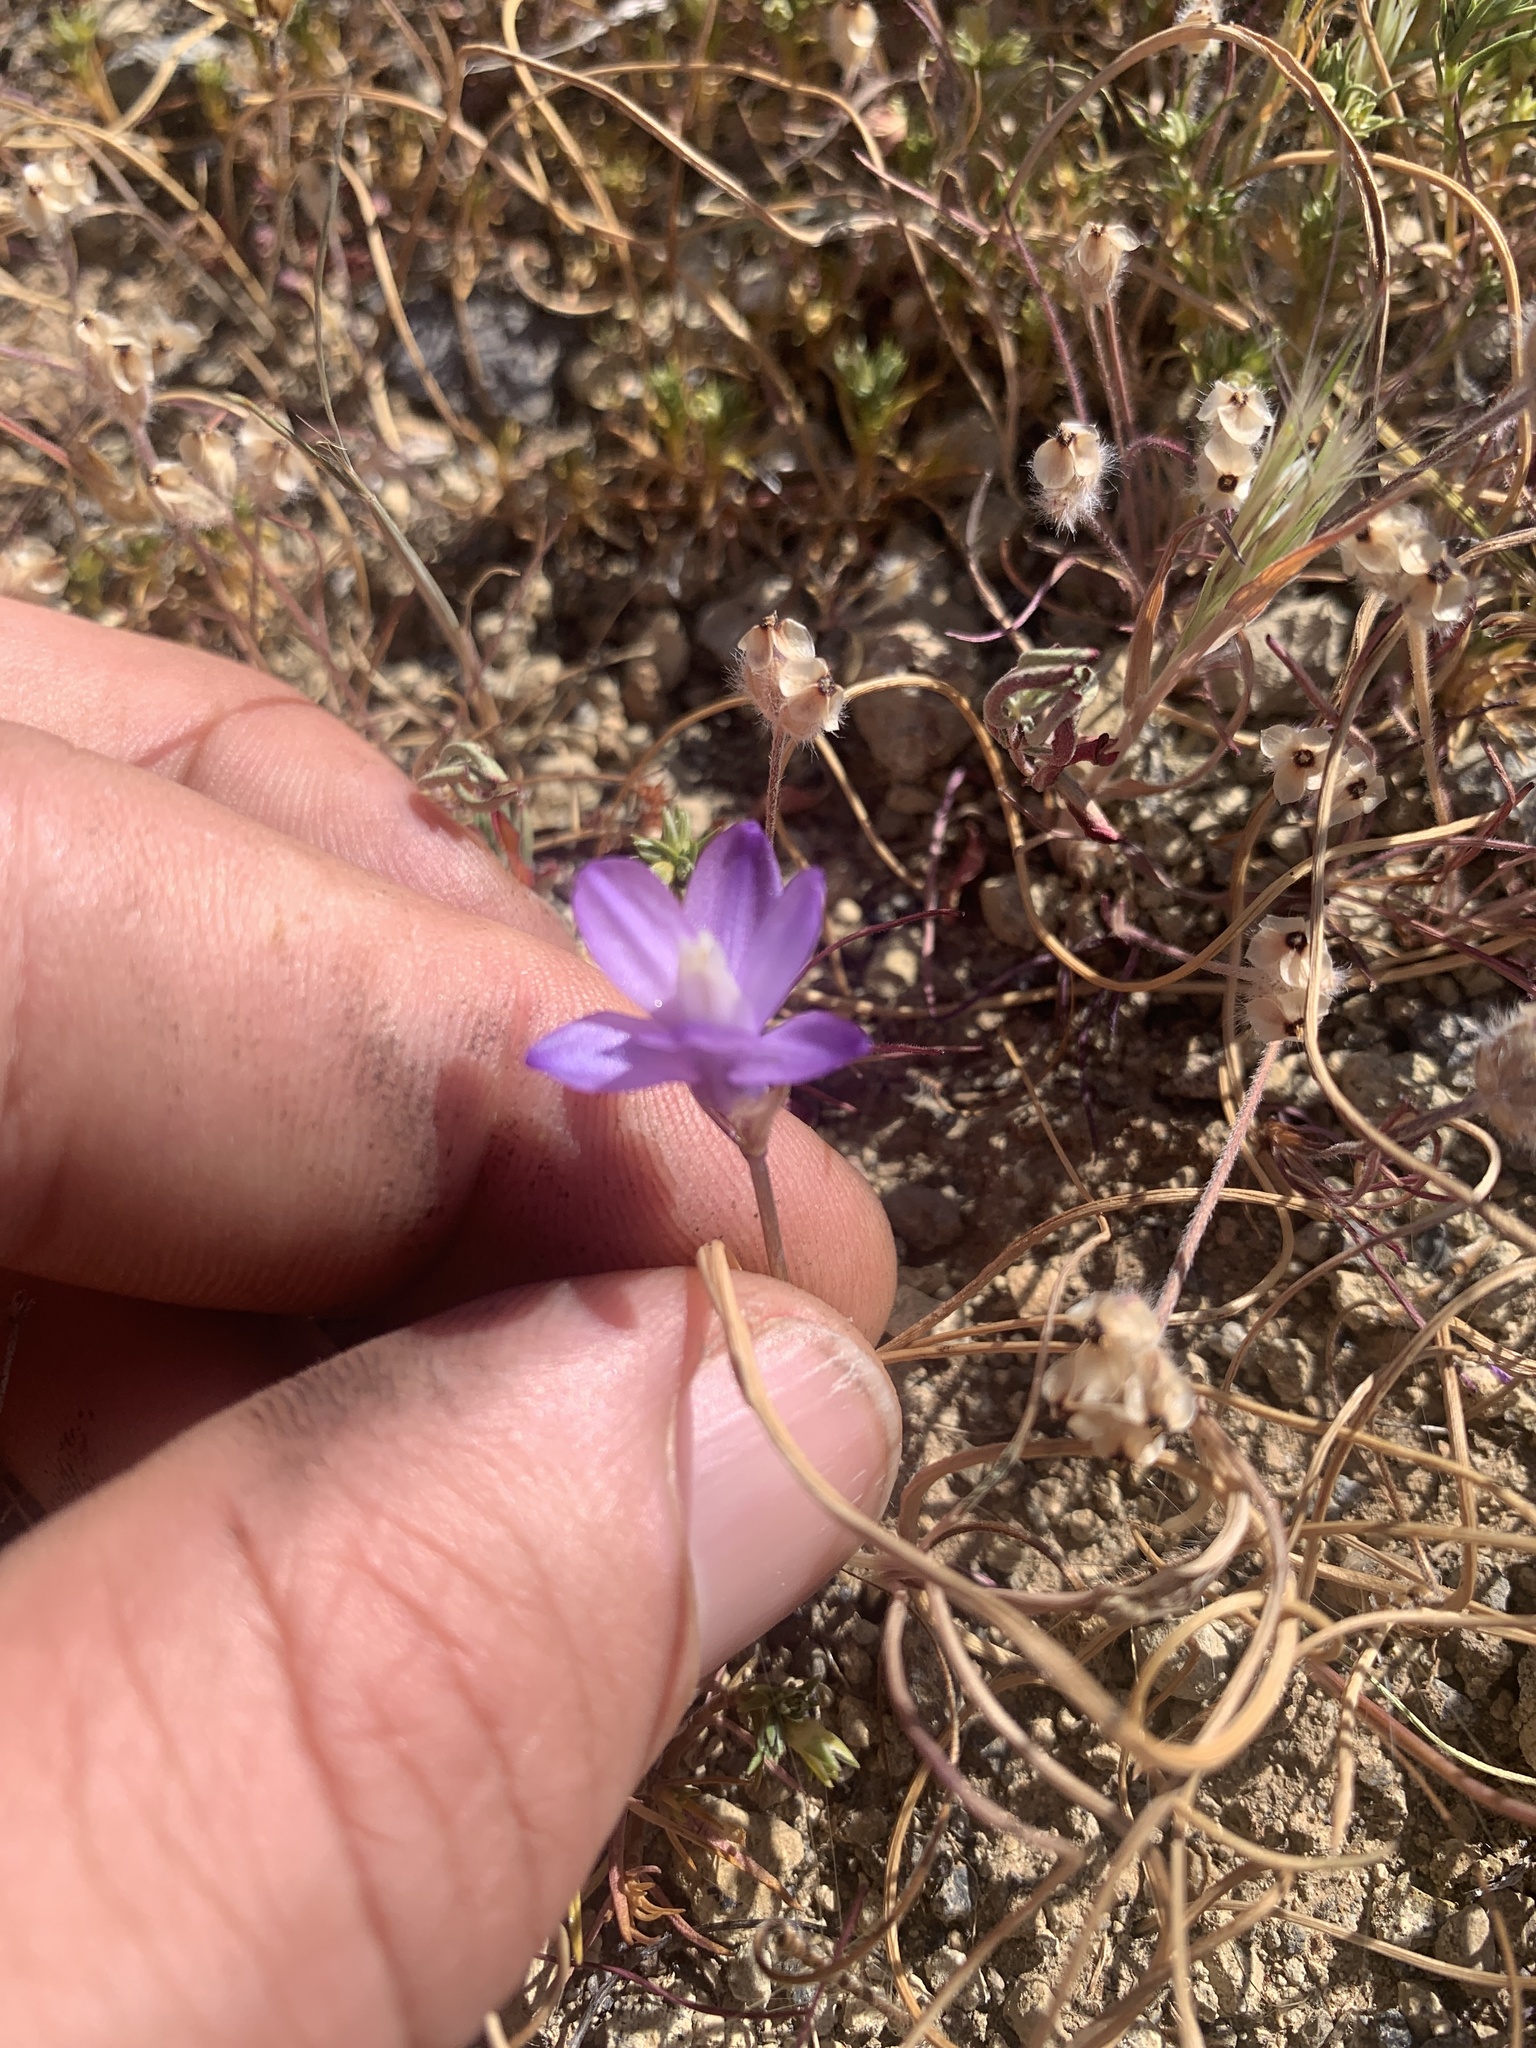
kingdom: Plantae
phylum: Tracheophyta
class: Liliopsida
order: Asparagales
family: Asparagaceae
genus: Dipterostemon
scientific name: Dipterostemon capitatus
